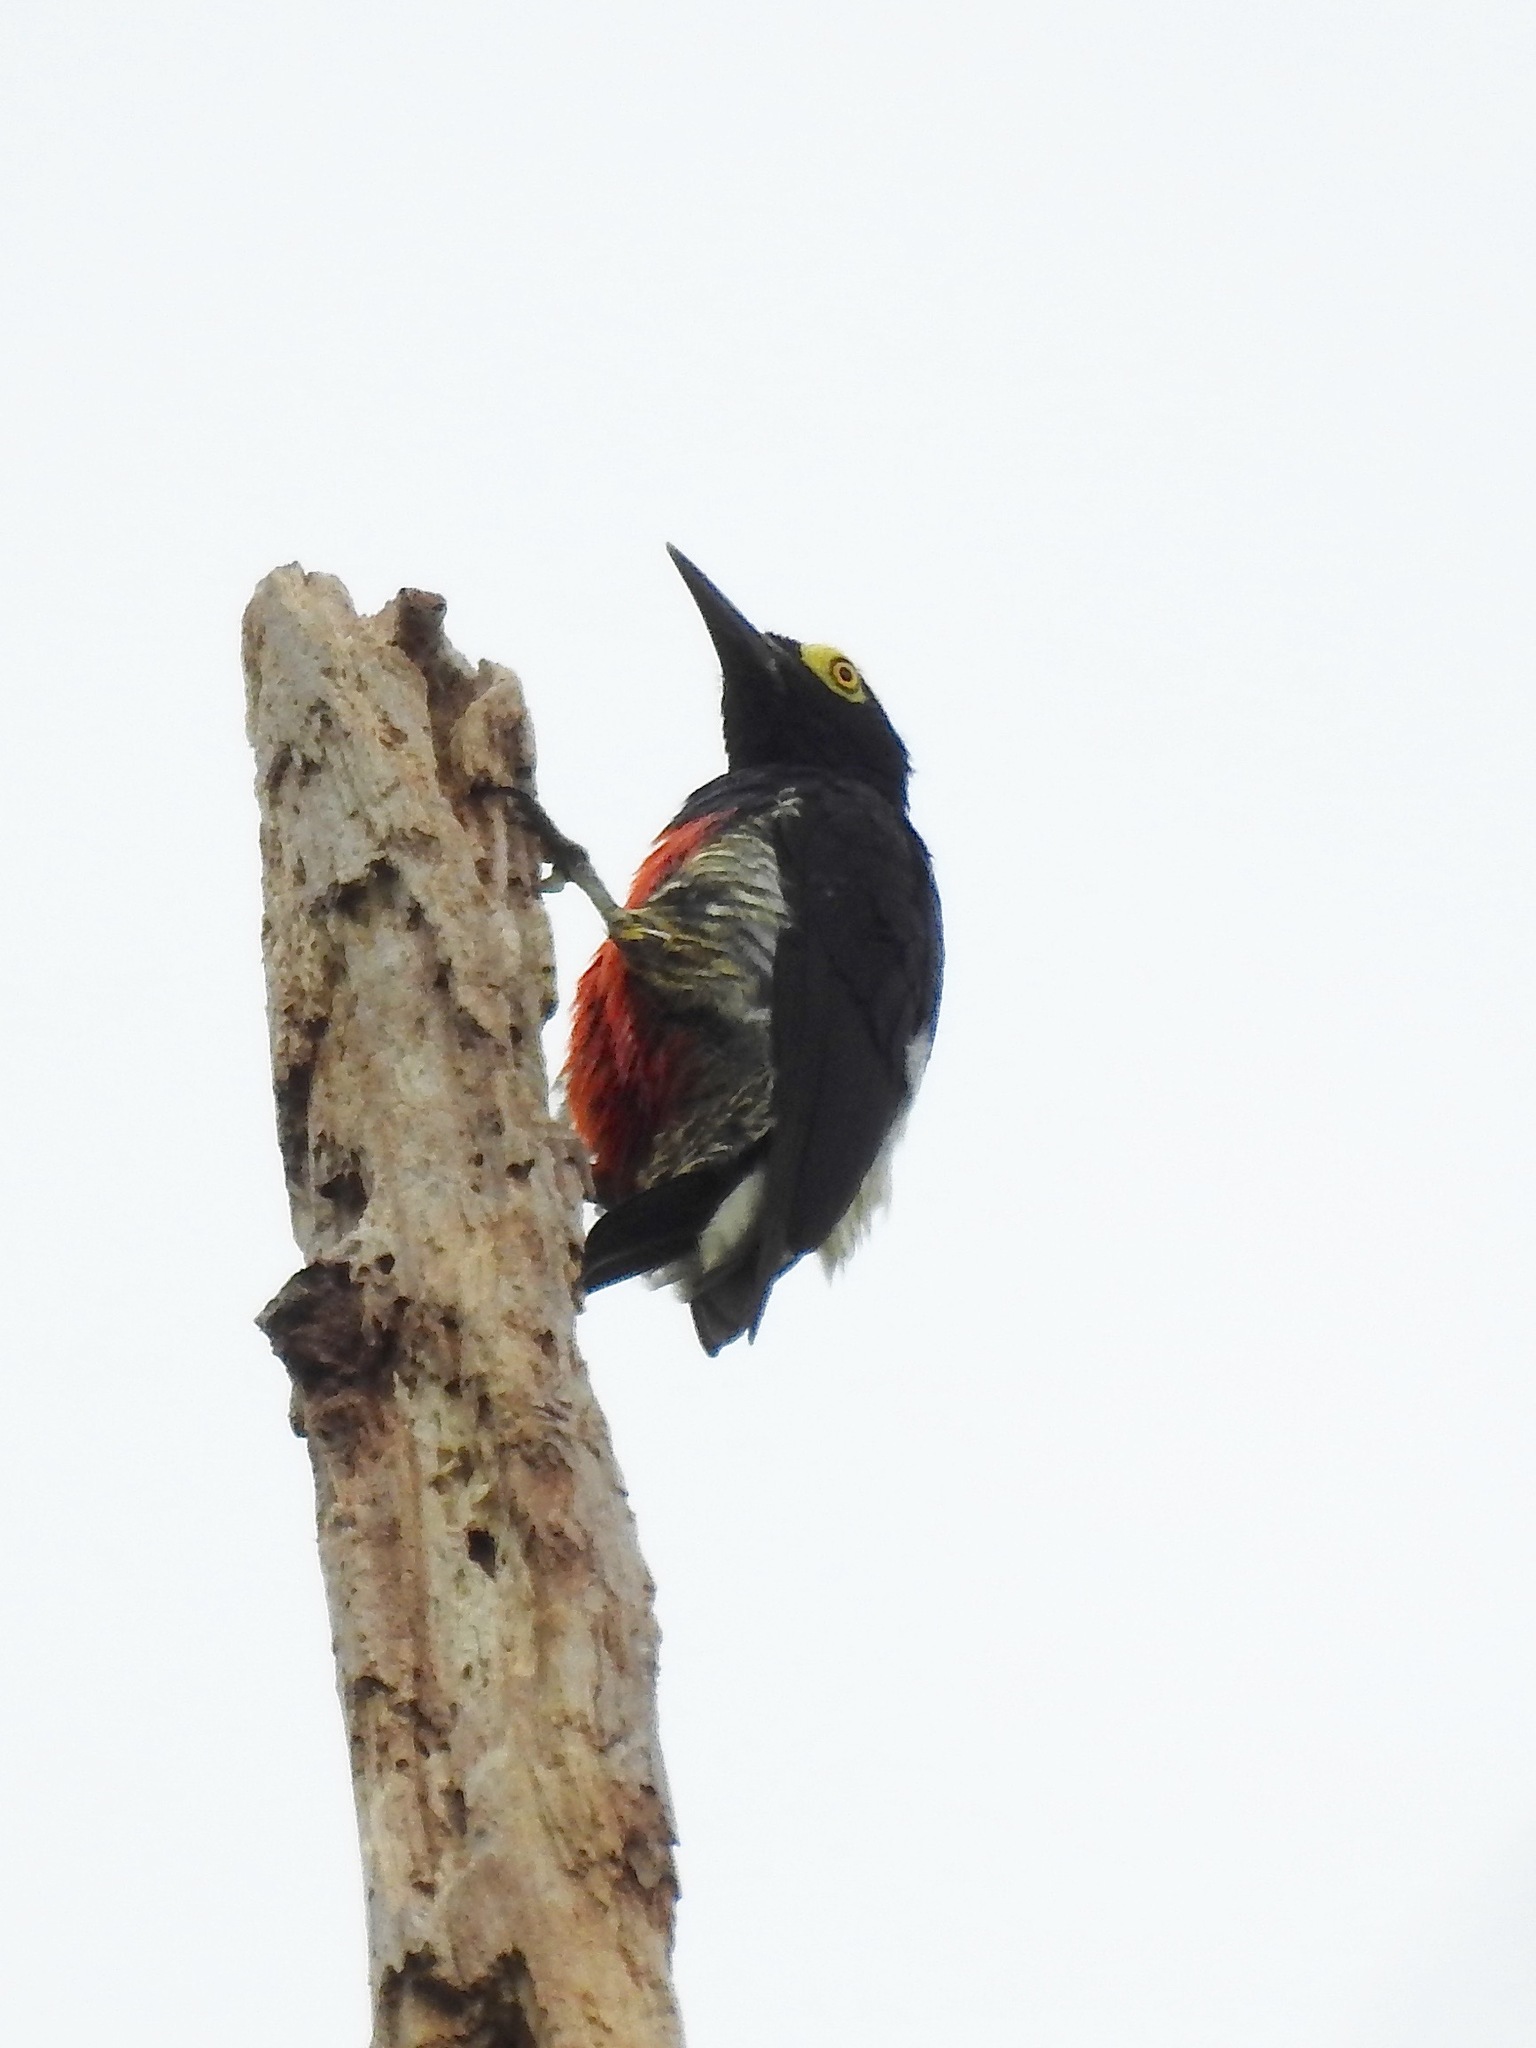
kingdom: Animalia
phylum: Chordata
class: Aves
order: Piciformes
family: Picidae
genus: Melanerpes
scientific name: Melanerpes cruentatus
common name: Yellow-tufted woodpecker
